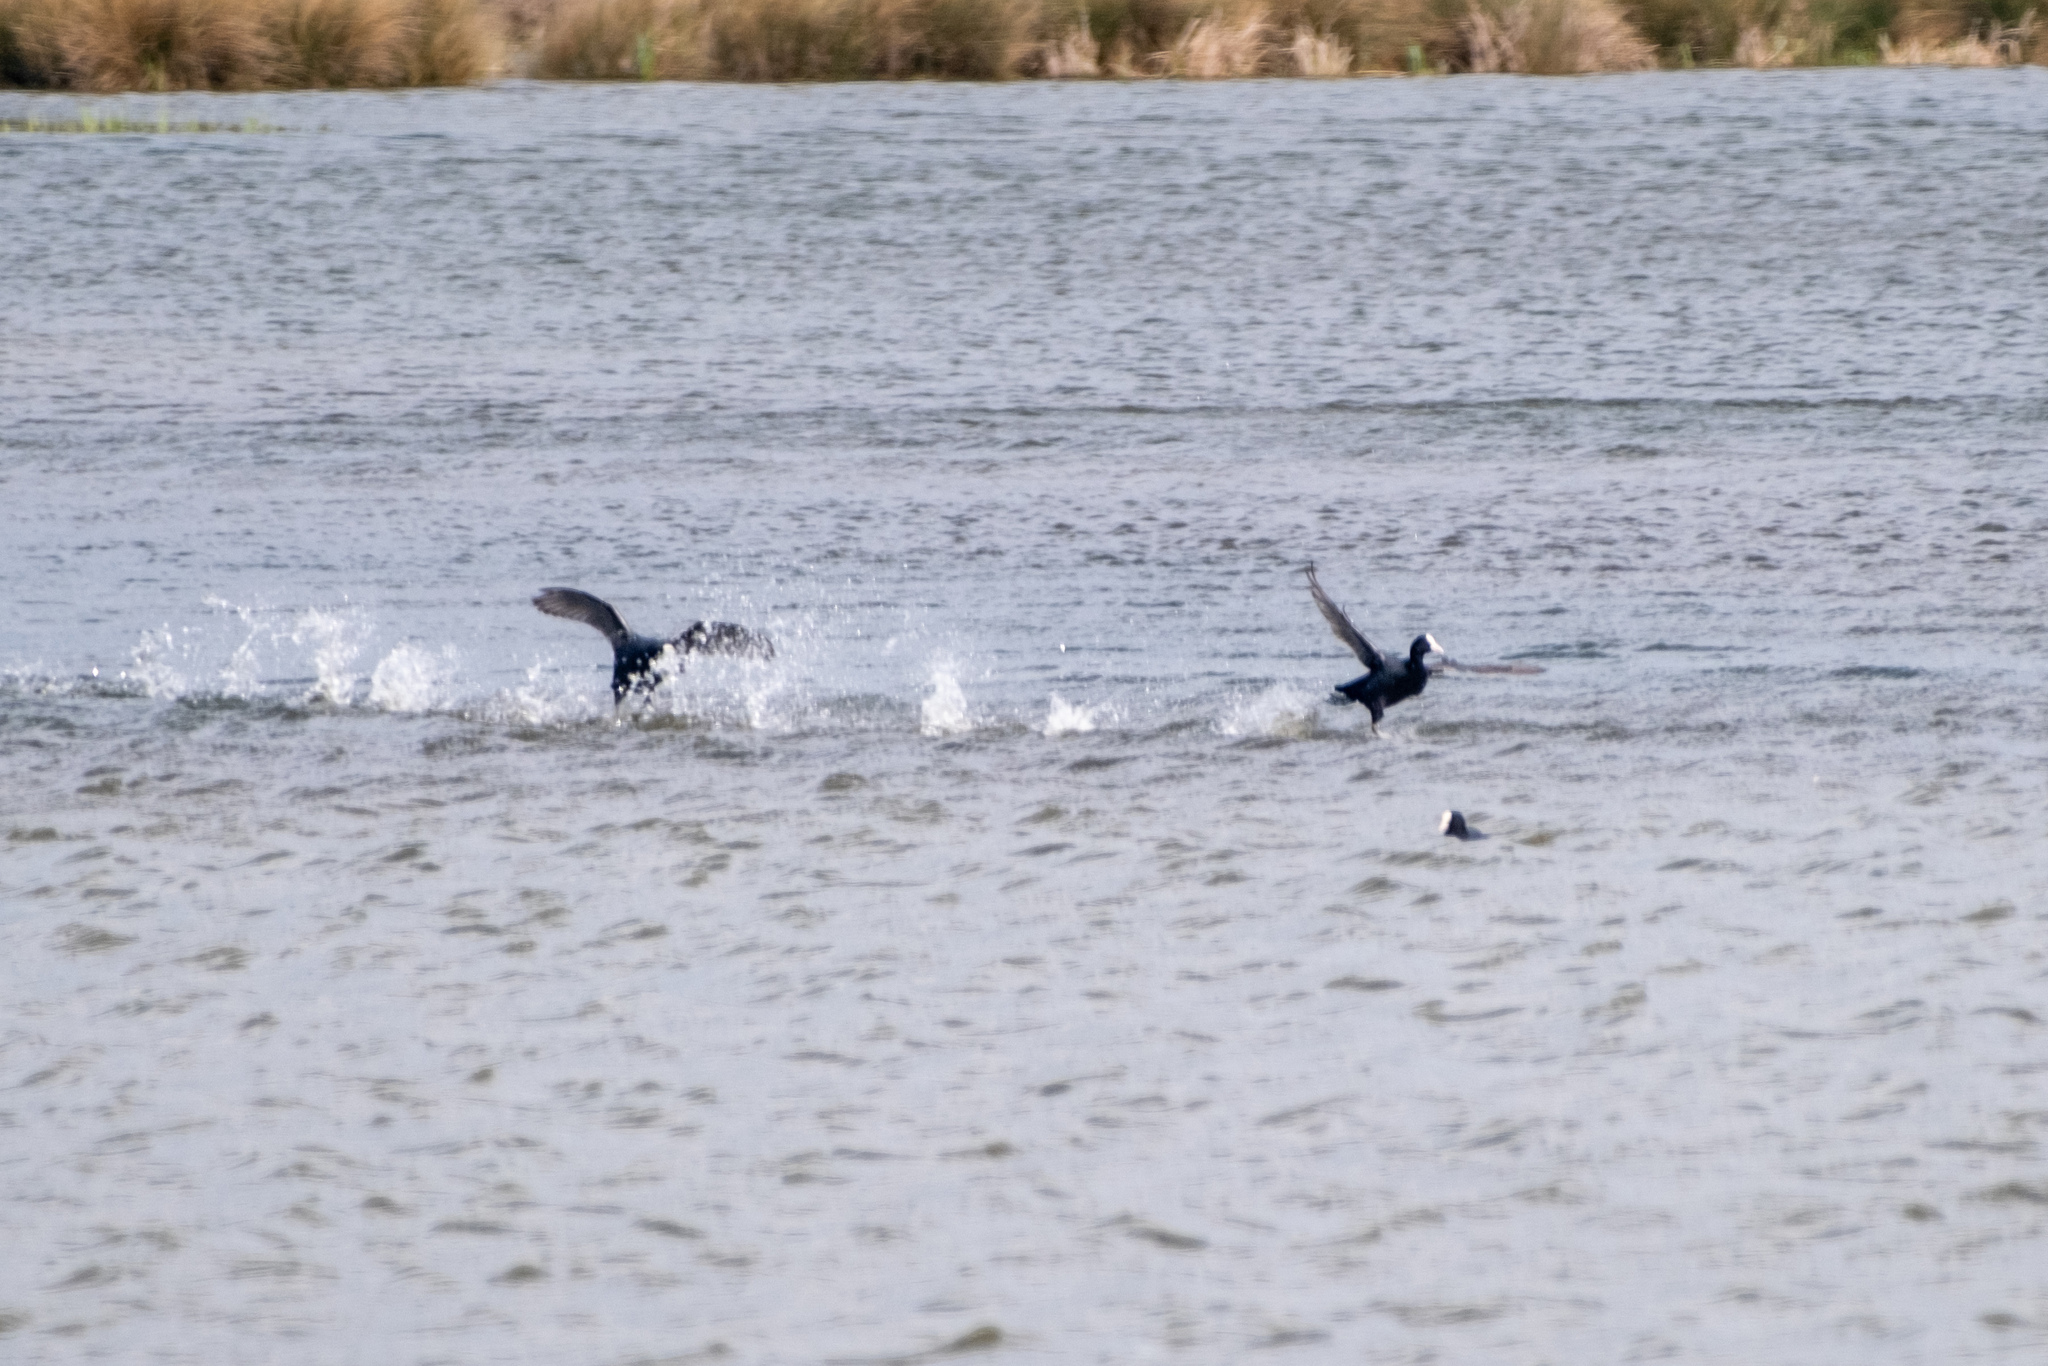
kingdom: Animalia
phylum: Chordata
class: Aves
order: Gruiformes
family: Rallidae
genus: Fulica
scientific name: Fulica atra
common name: Eurasian coot
